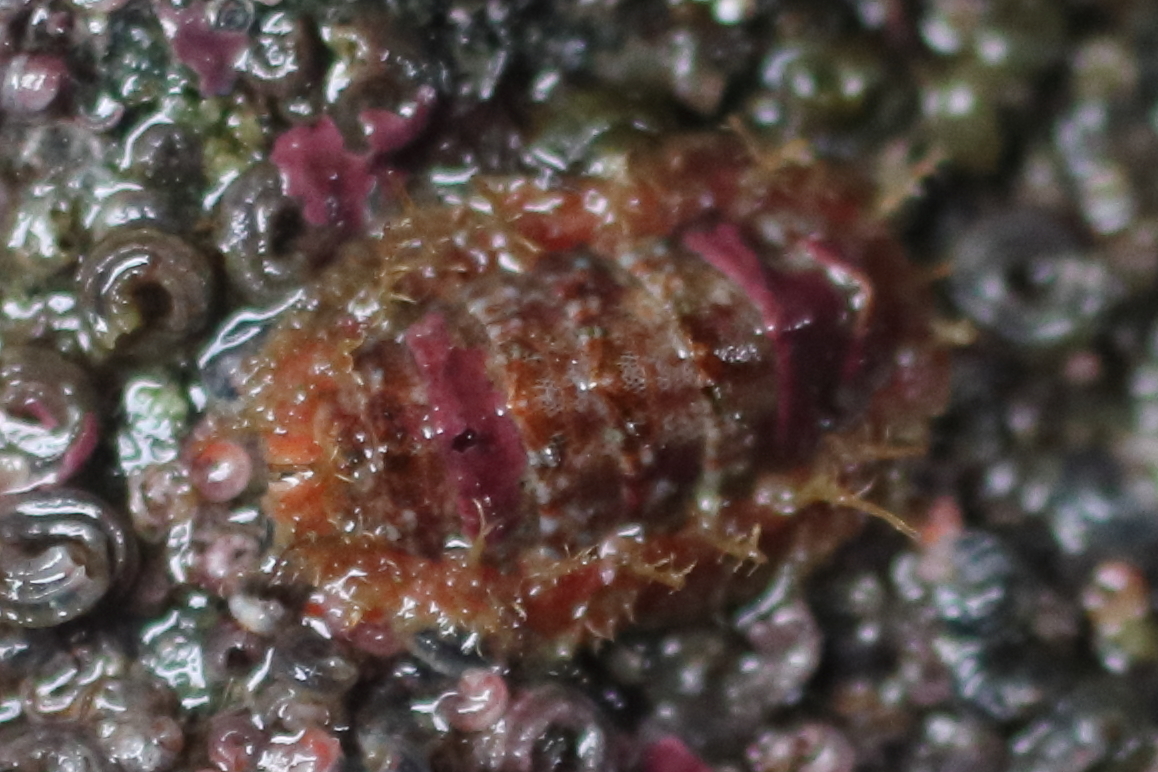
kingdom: Animalia
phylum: Mollusca
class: Polyplacophora
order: Chitonida
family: Mopaliidae
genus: Mopalia
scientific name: Mopalia spectabilis
